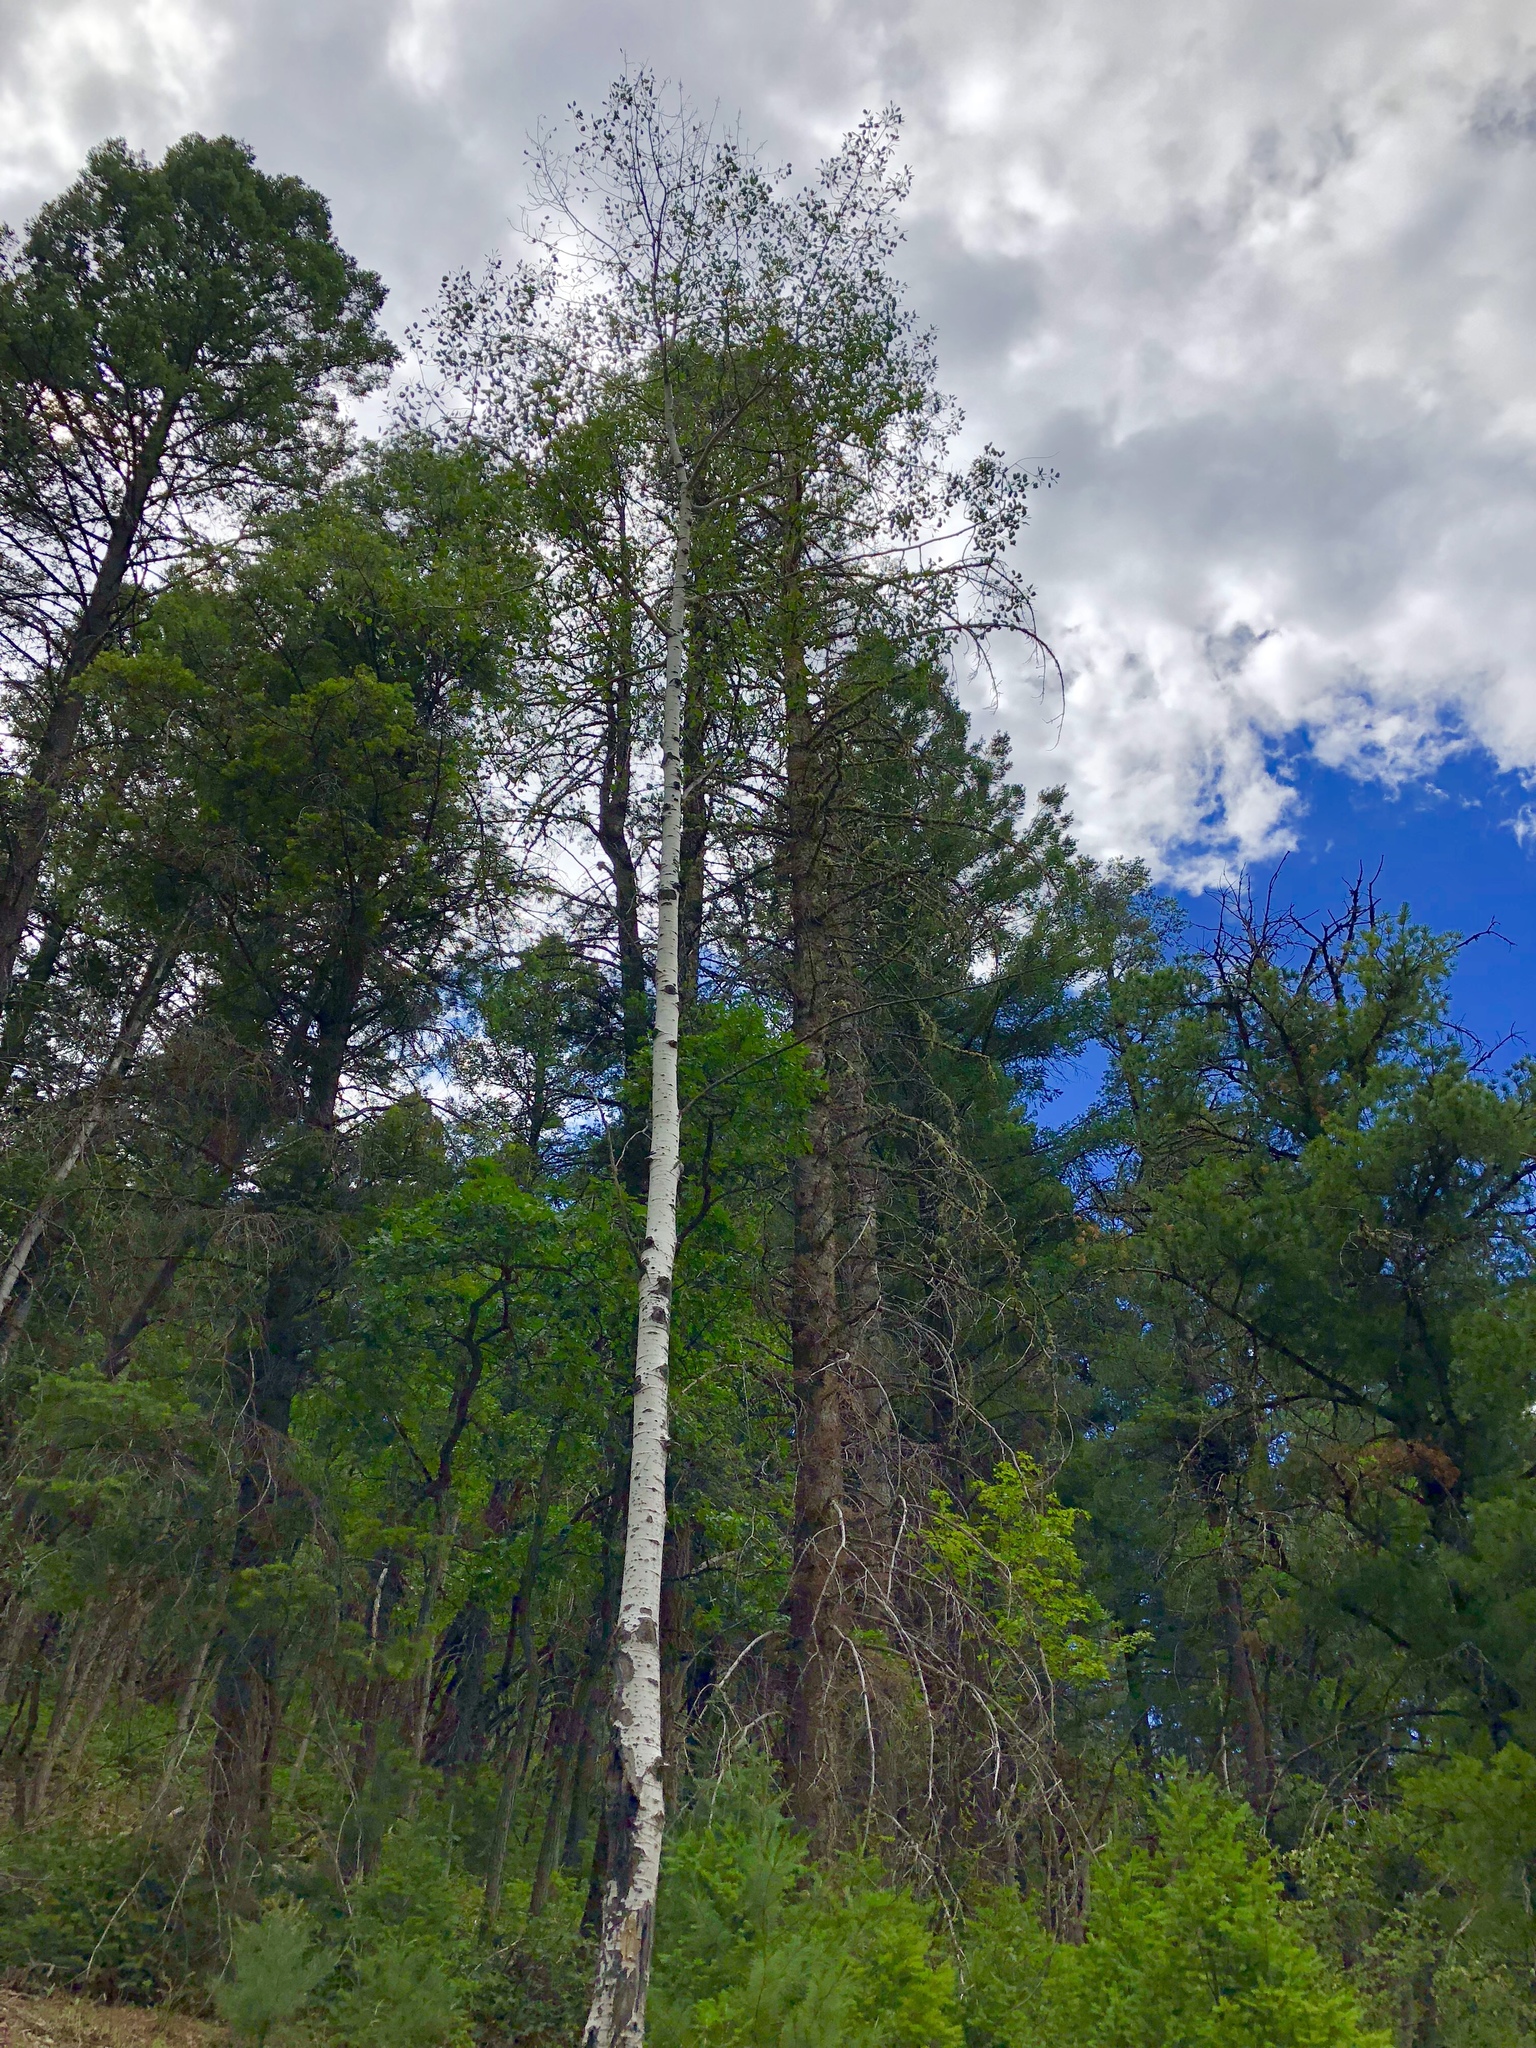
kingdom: Plantae
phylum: Tracheophyta
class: Magnoliopsida
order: Malpighiales
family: Salicaceae
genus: Populus
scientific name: Populus tremuloides
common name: Quaking aspen
